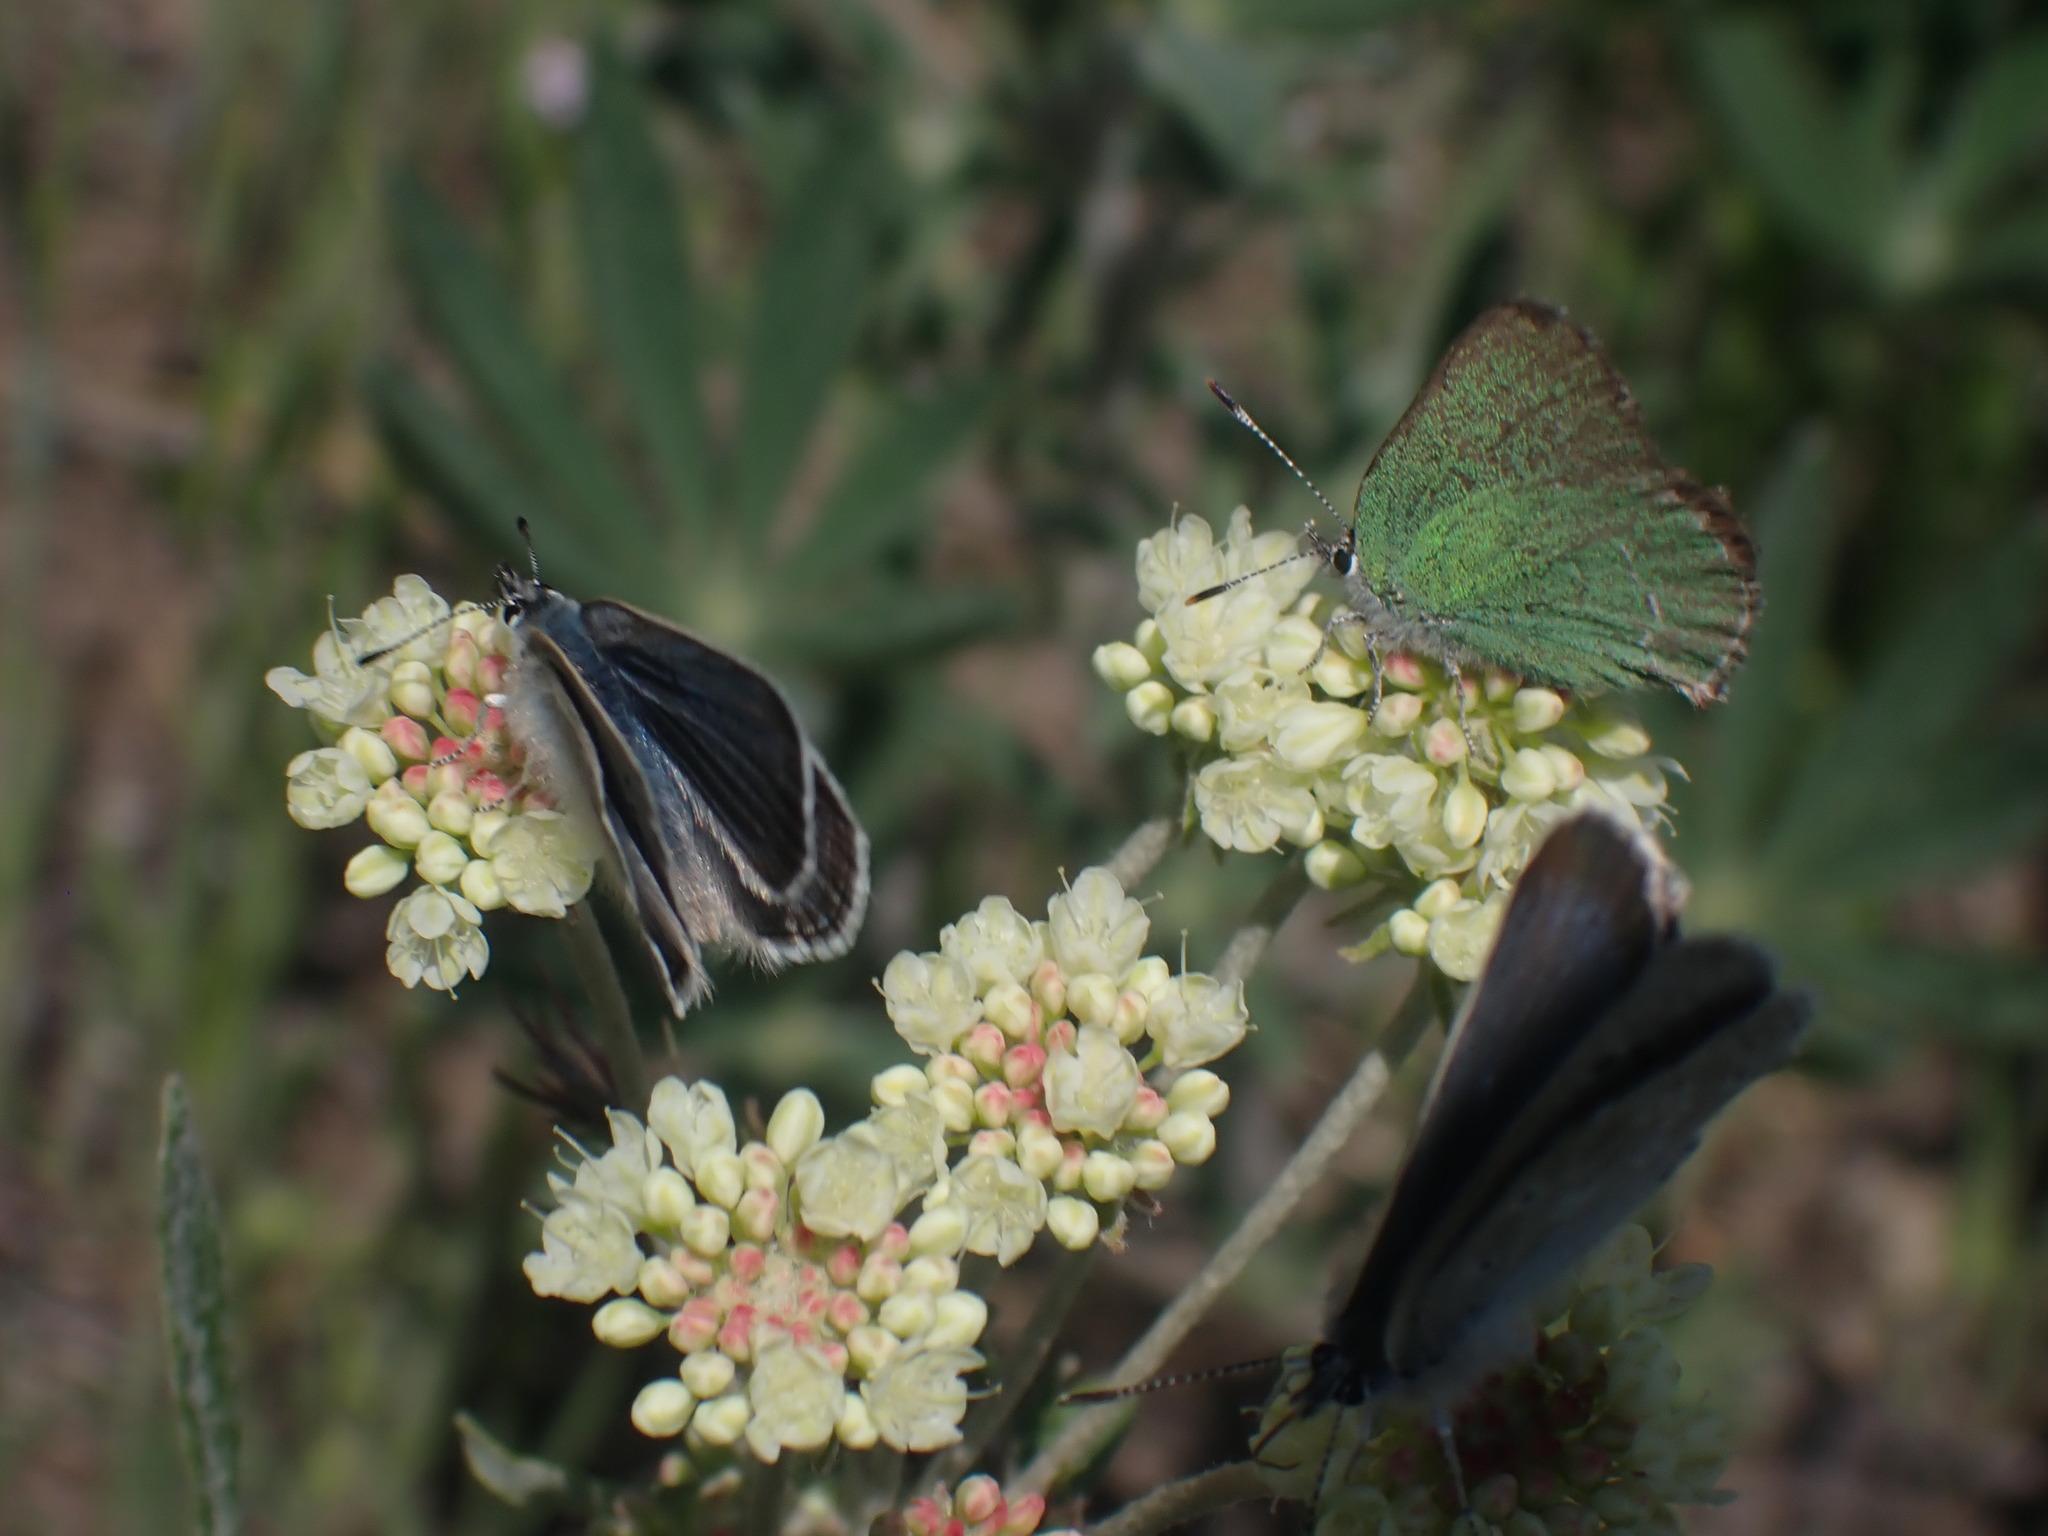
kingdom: Animalia
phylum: Arthropoda
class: Insecta
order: Lepidoptera
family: Lycaenidae
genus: Icaricia
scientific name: Icaricia icarioides
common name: Boisduval's blue
